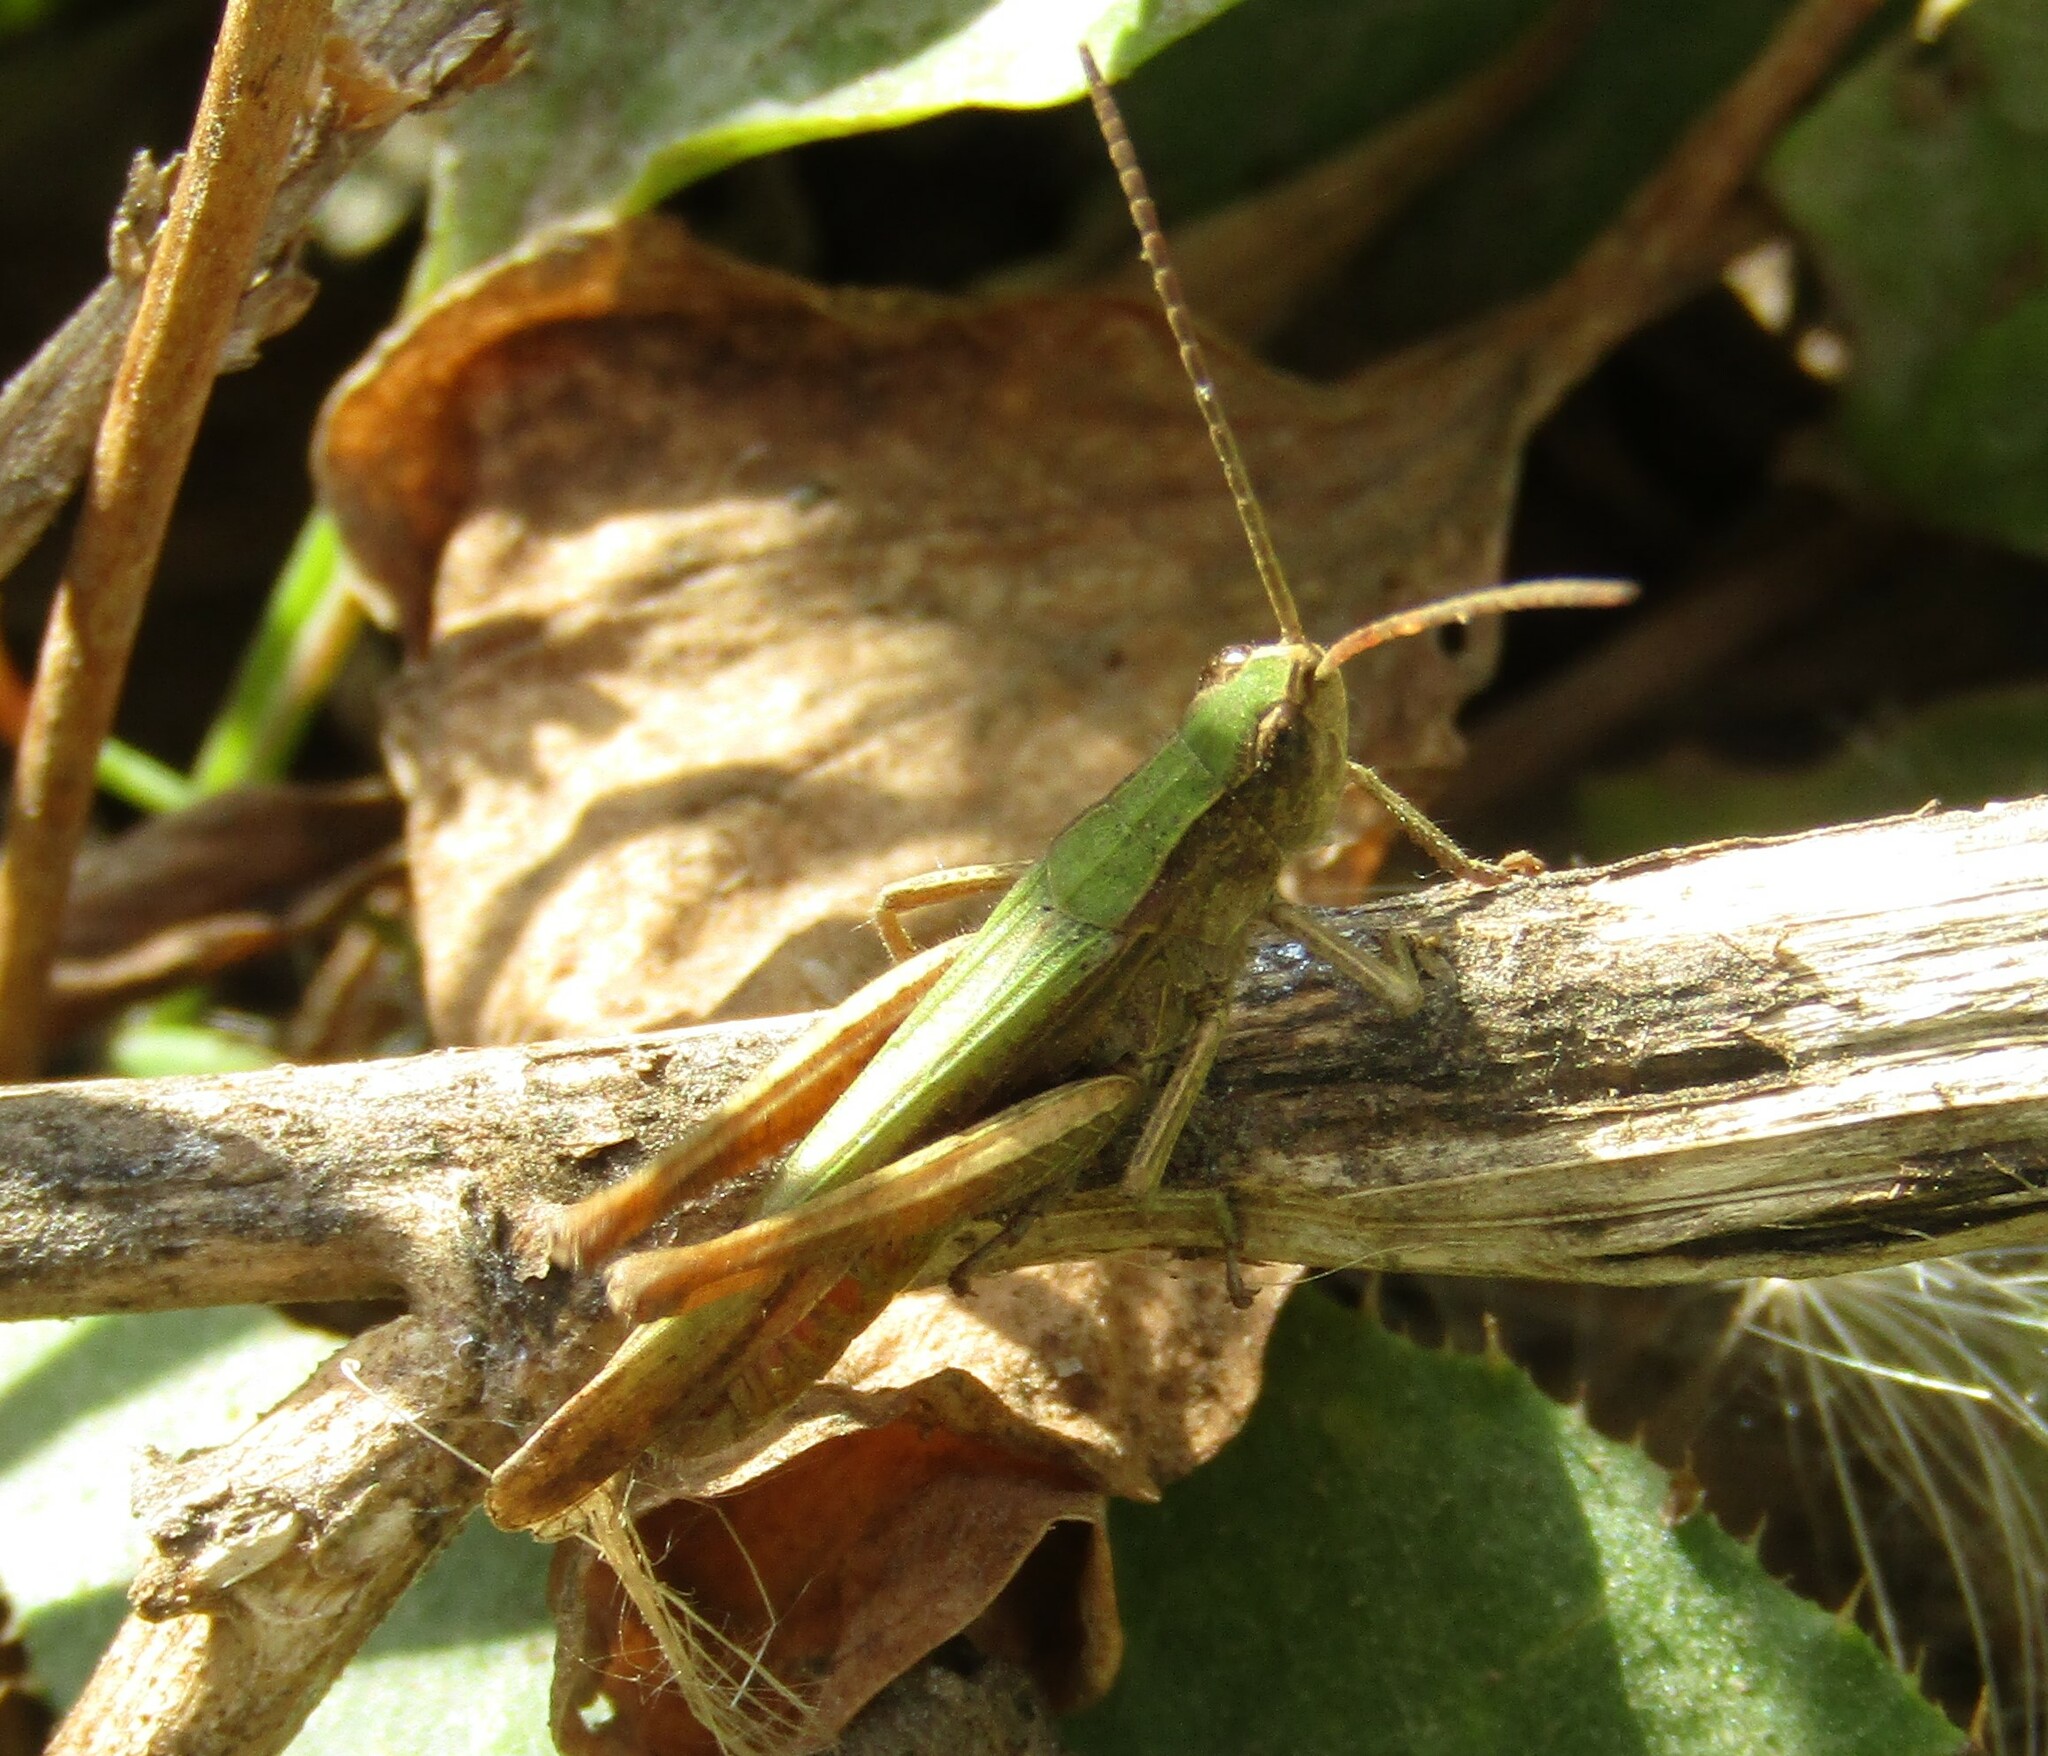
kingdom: Animalia
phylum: Arthropoda
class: Insecta
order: Orthoptera
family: Acrididae
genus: Chorthippus
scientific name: Chorthippus dorsatus
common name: Steppe grasshopper
